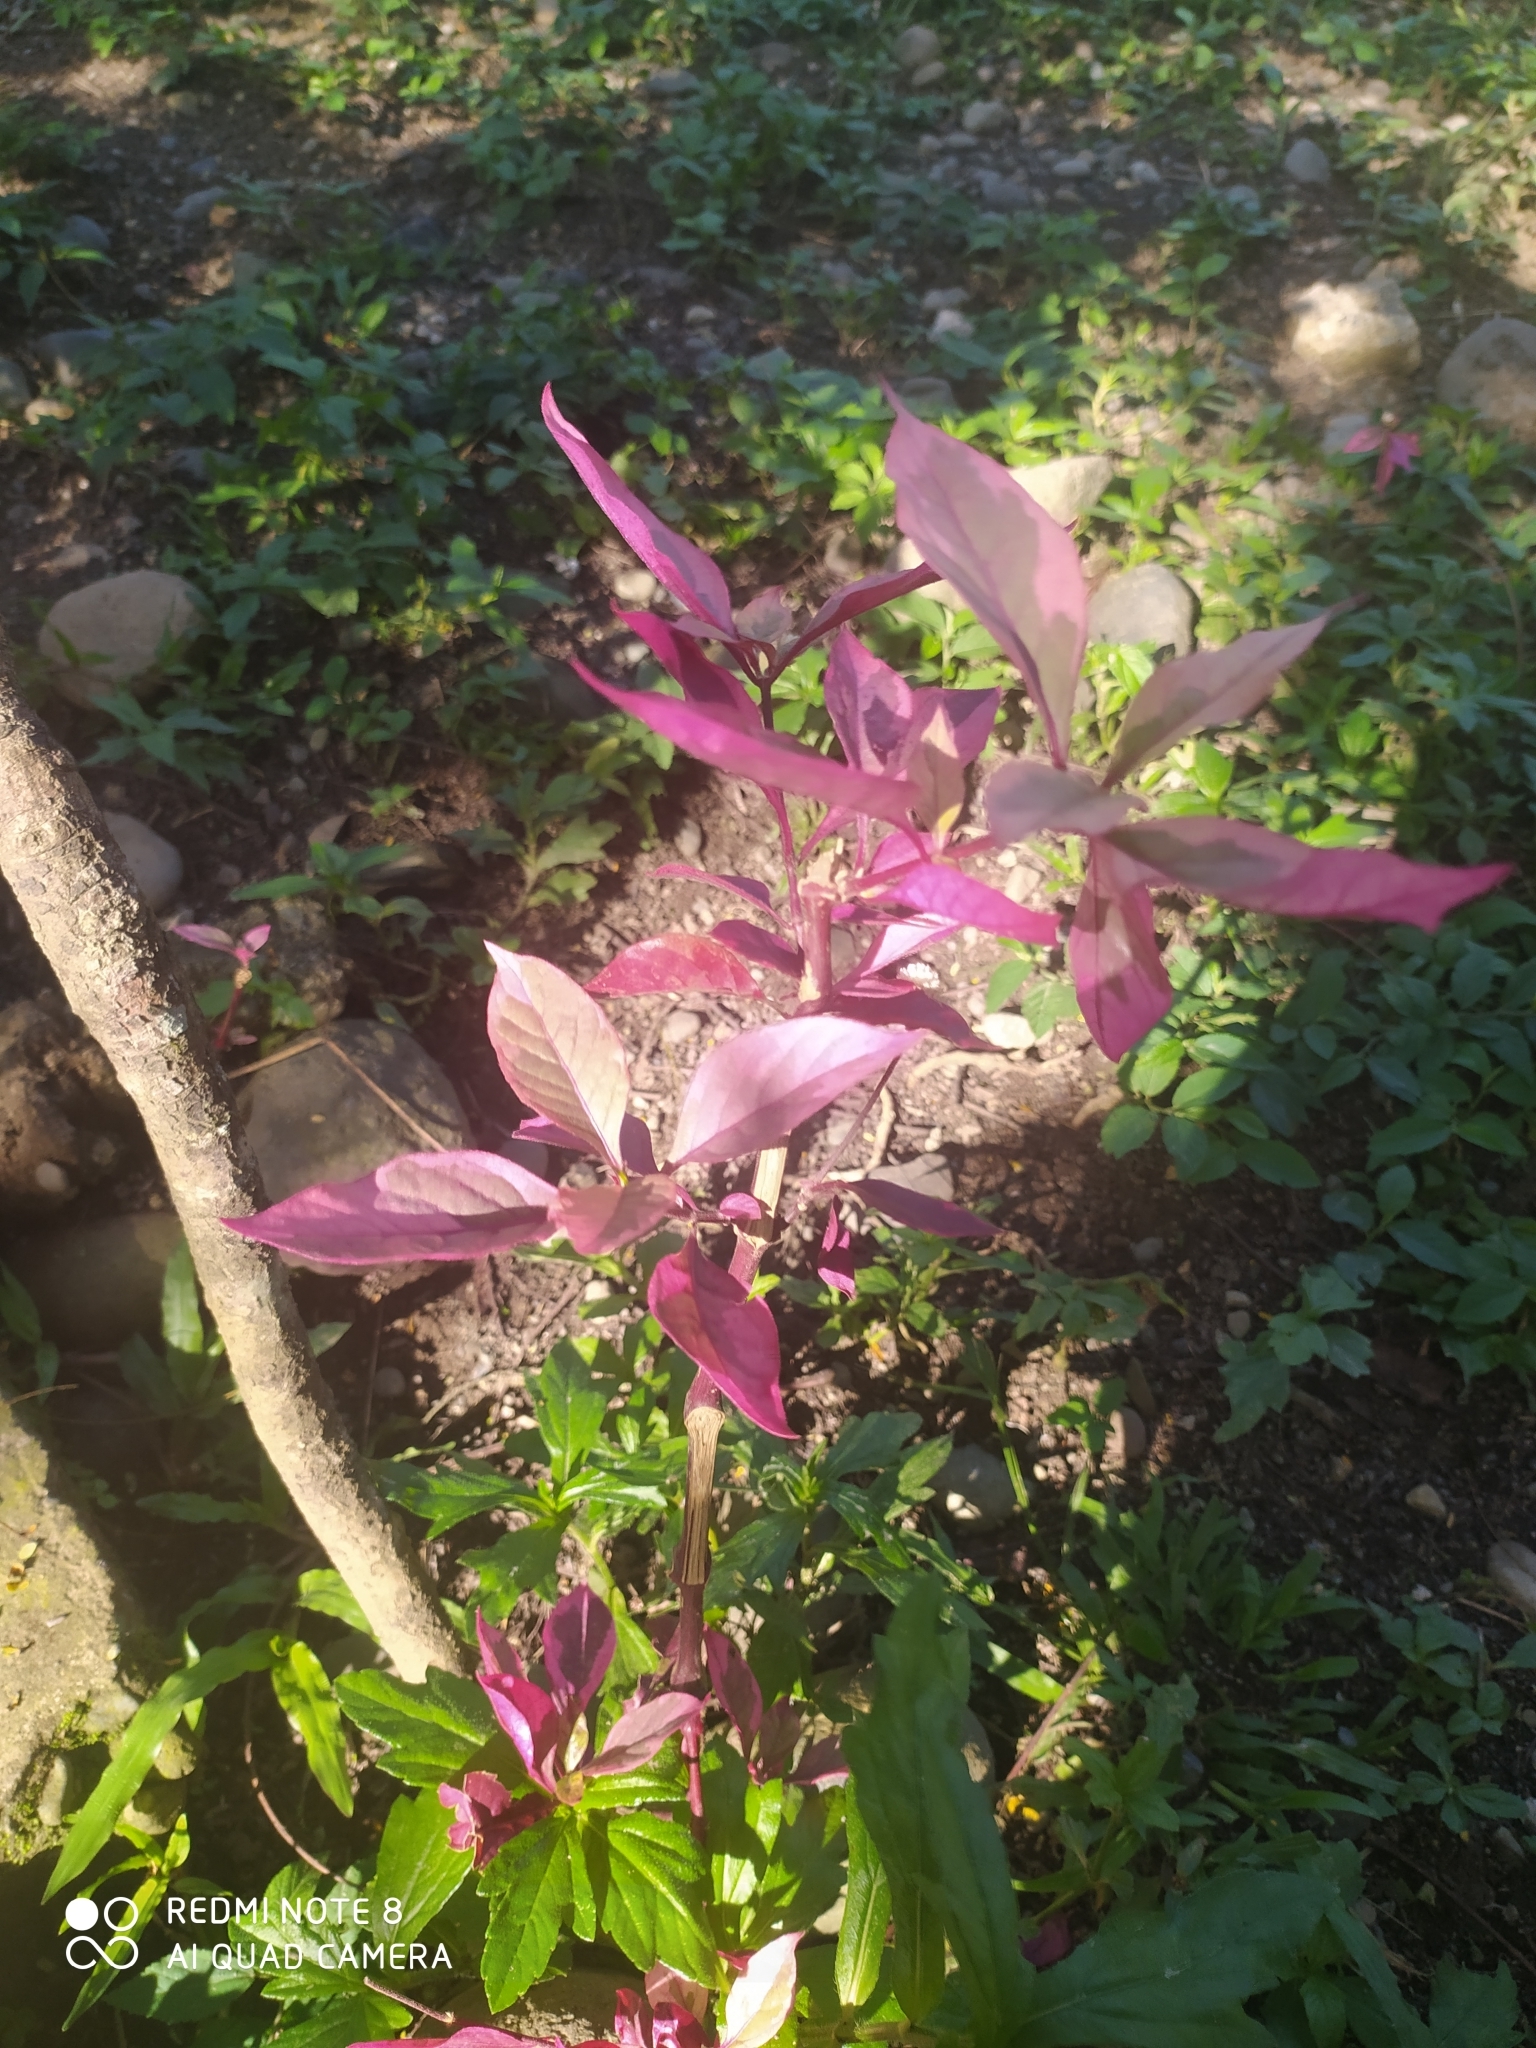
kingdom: Plantae
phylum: Tracheophyta
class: Magnoliopsida
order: Caryophyllales
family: Amaranthaceae
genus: Alternanthera
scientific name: Alternanthera brasiliana
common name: Brazilian joyweed
